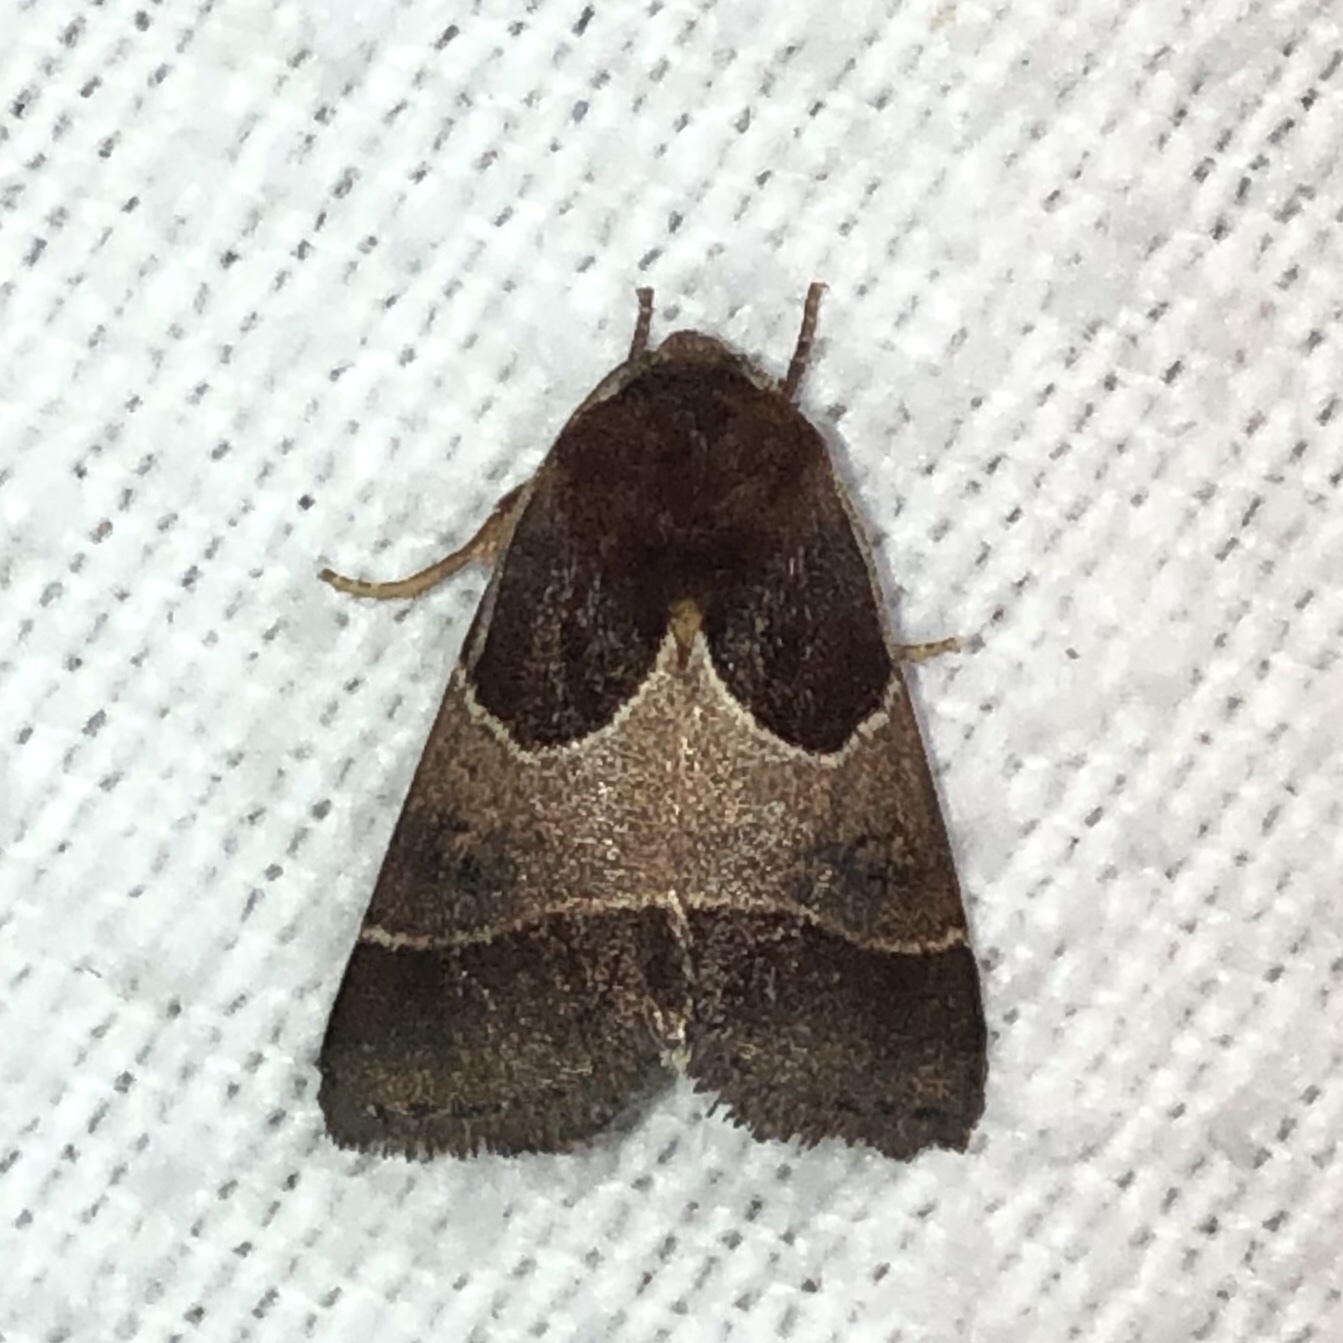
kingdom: Animalia
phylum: Arthropoda
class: Insecta
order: Lepidoptera
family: Noctuidae
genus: Schinia
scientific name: Schinia arcigera
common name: Arcigera flower moth
